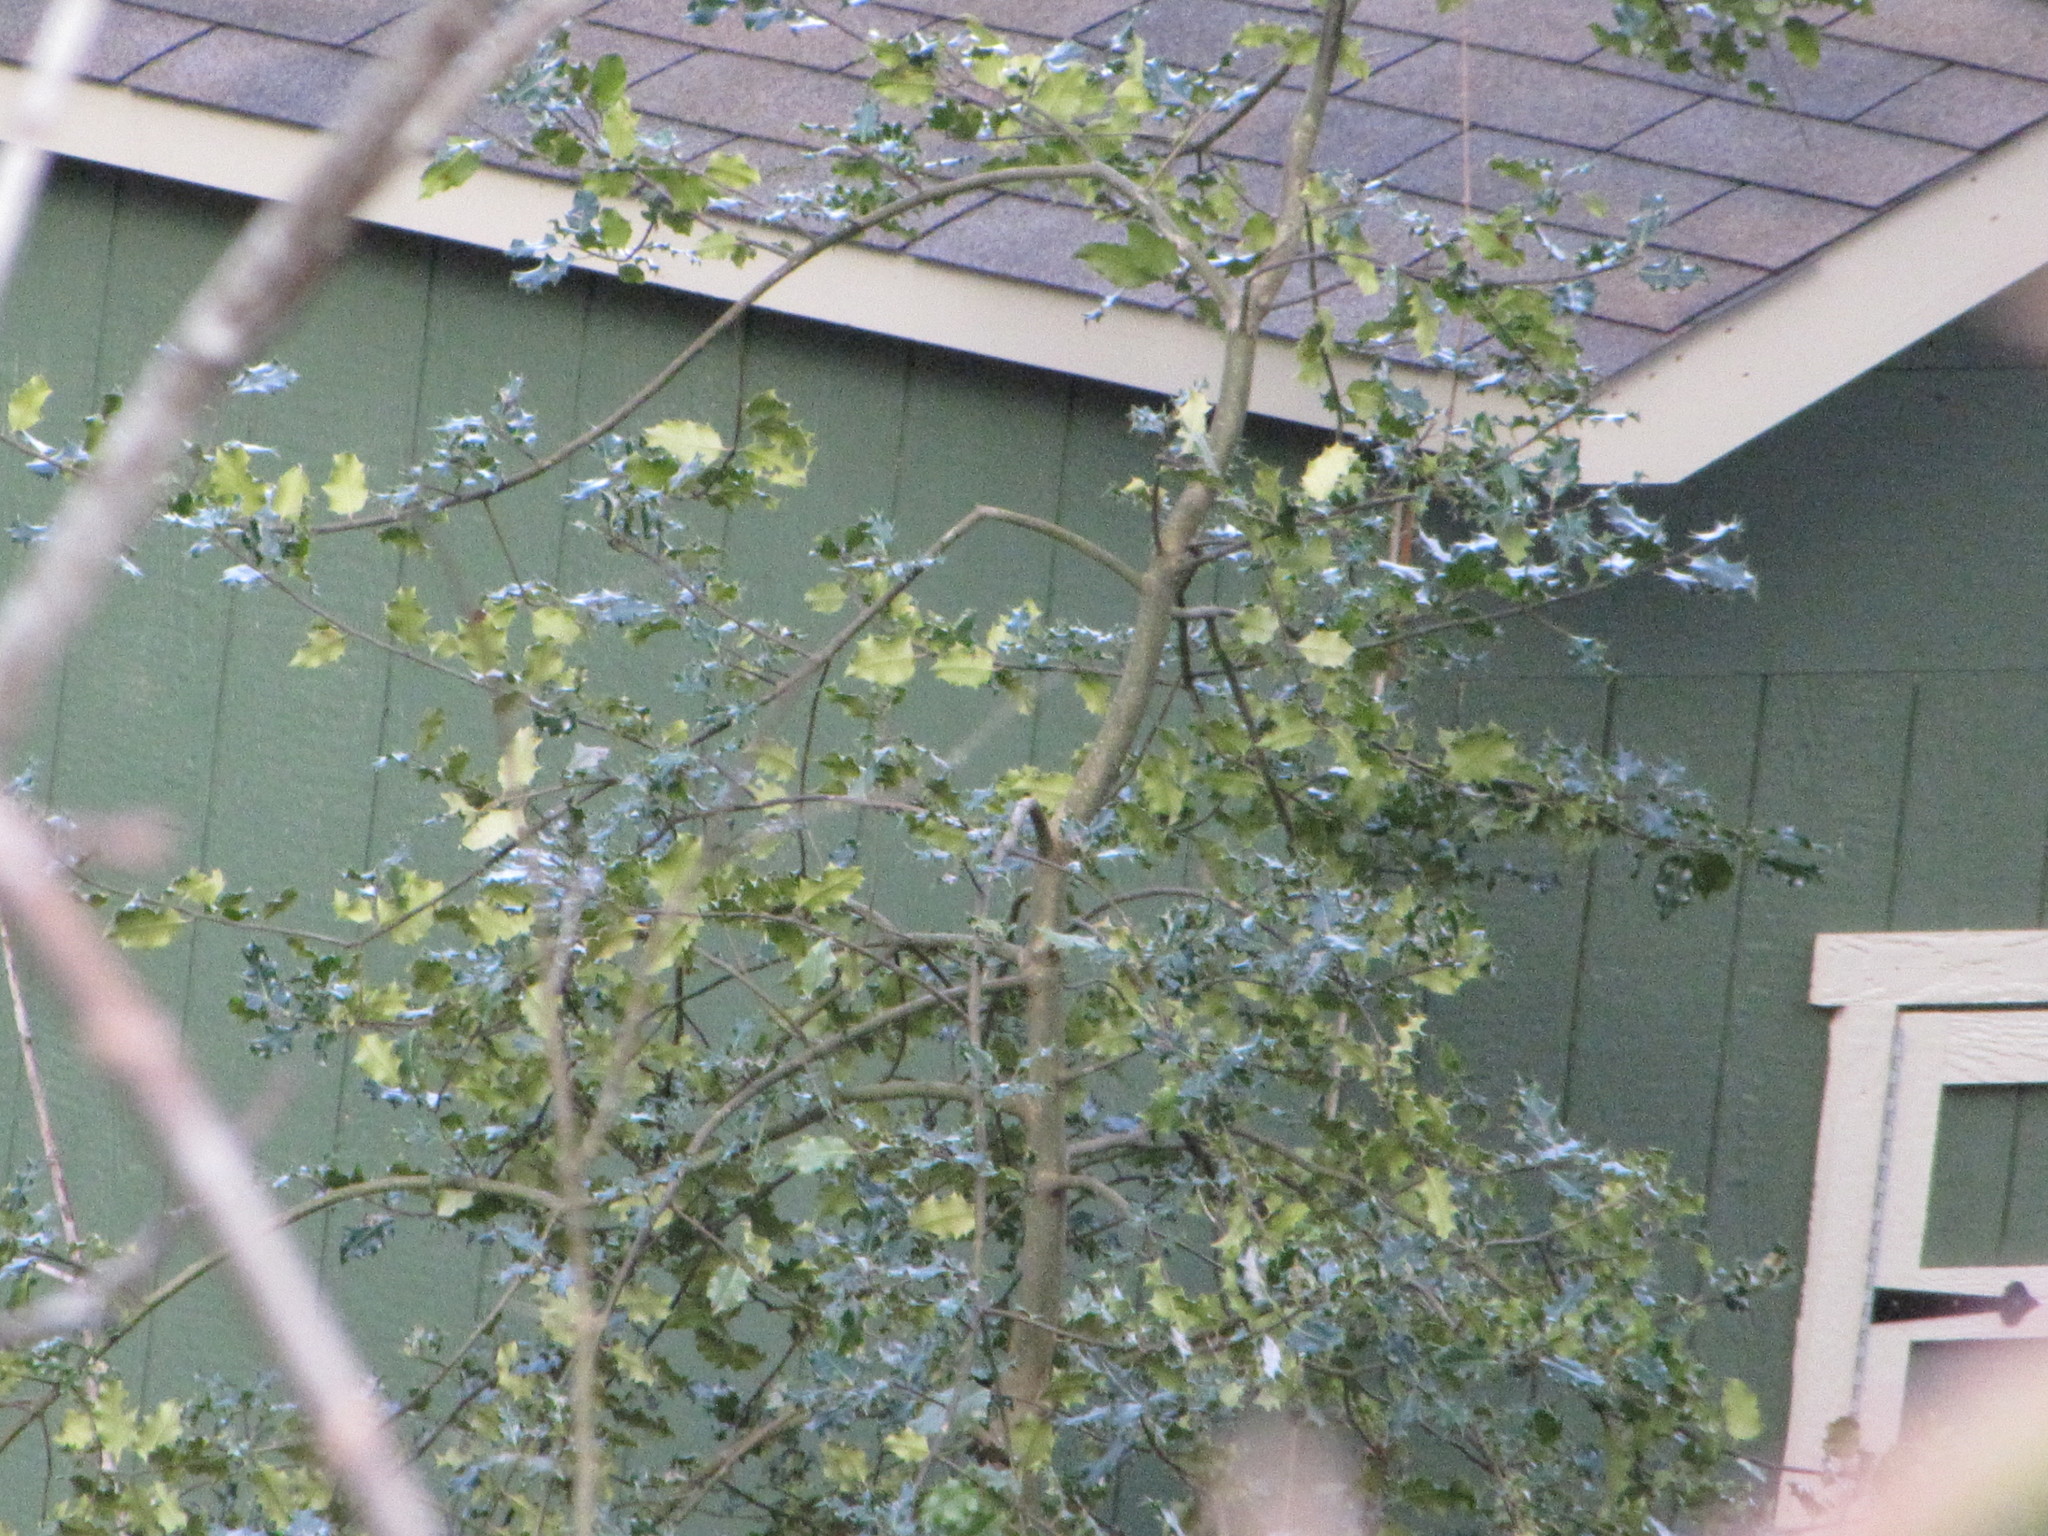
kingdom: Plantae
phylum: Tracheophyta
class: Magnoliopsida
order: Aquifoliales
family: Aquifoliaceae
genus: Ilex
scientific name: Ilex aquifolium
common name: English holly
